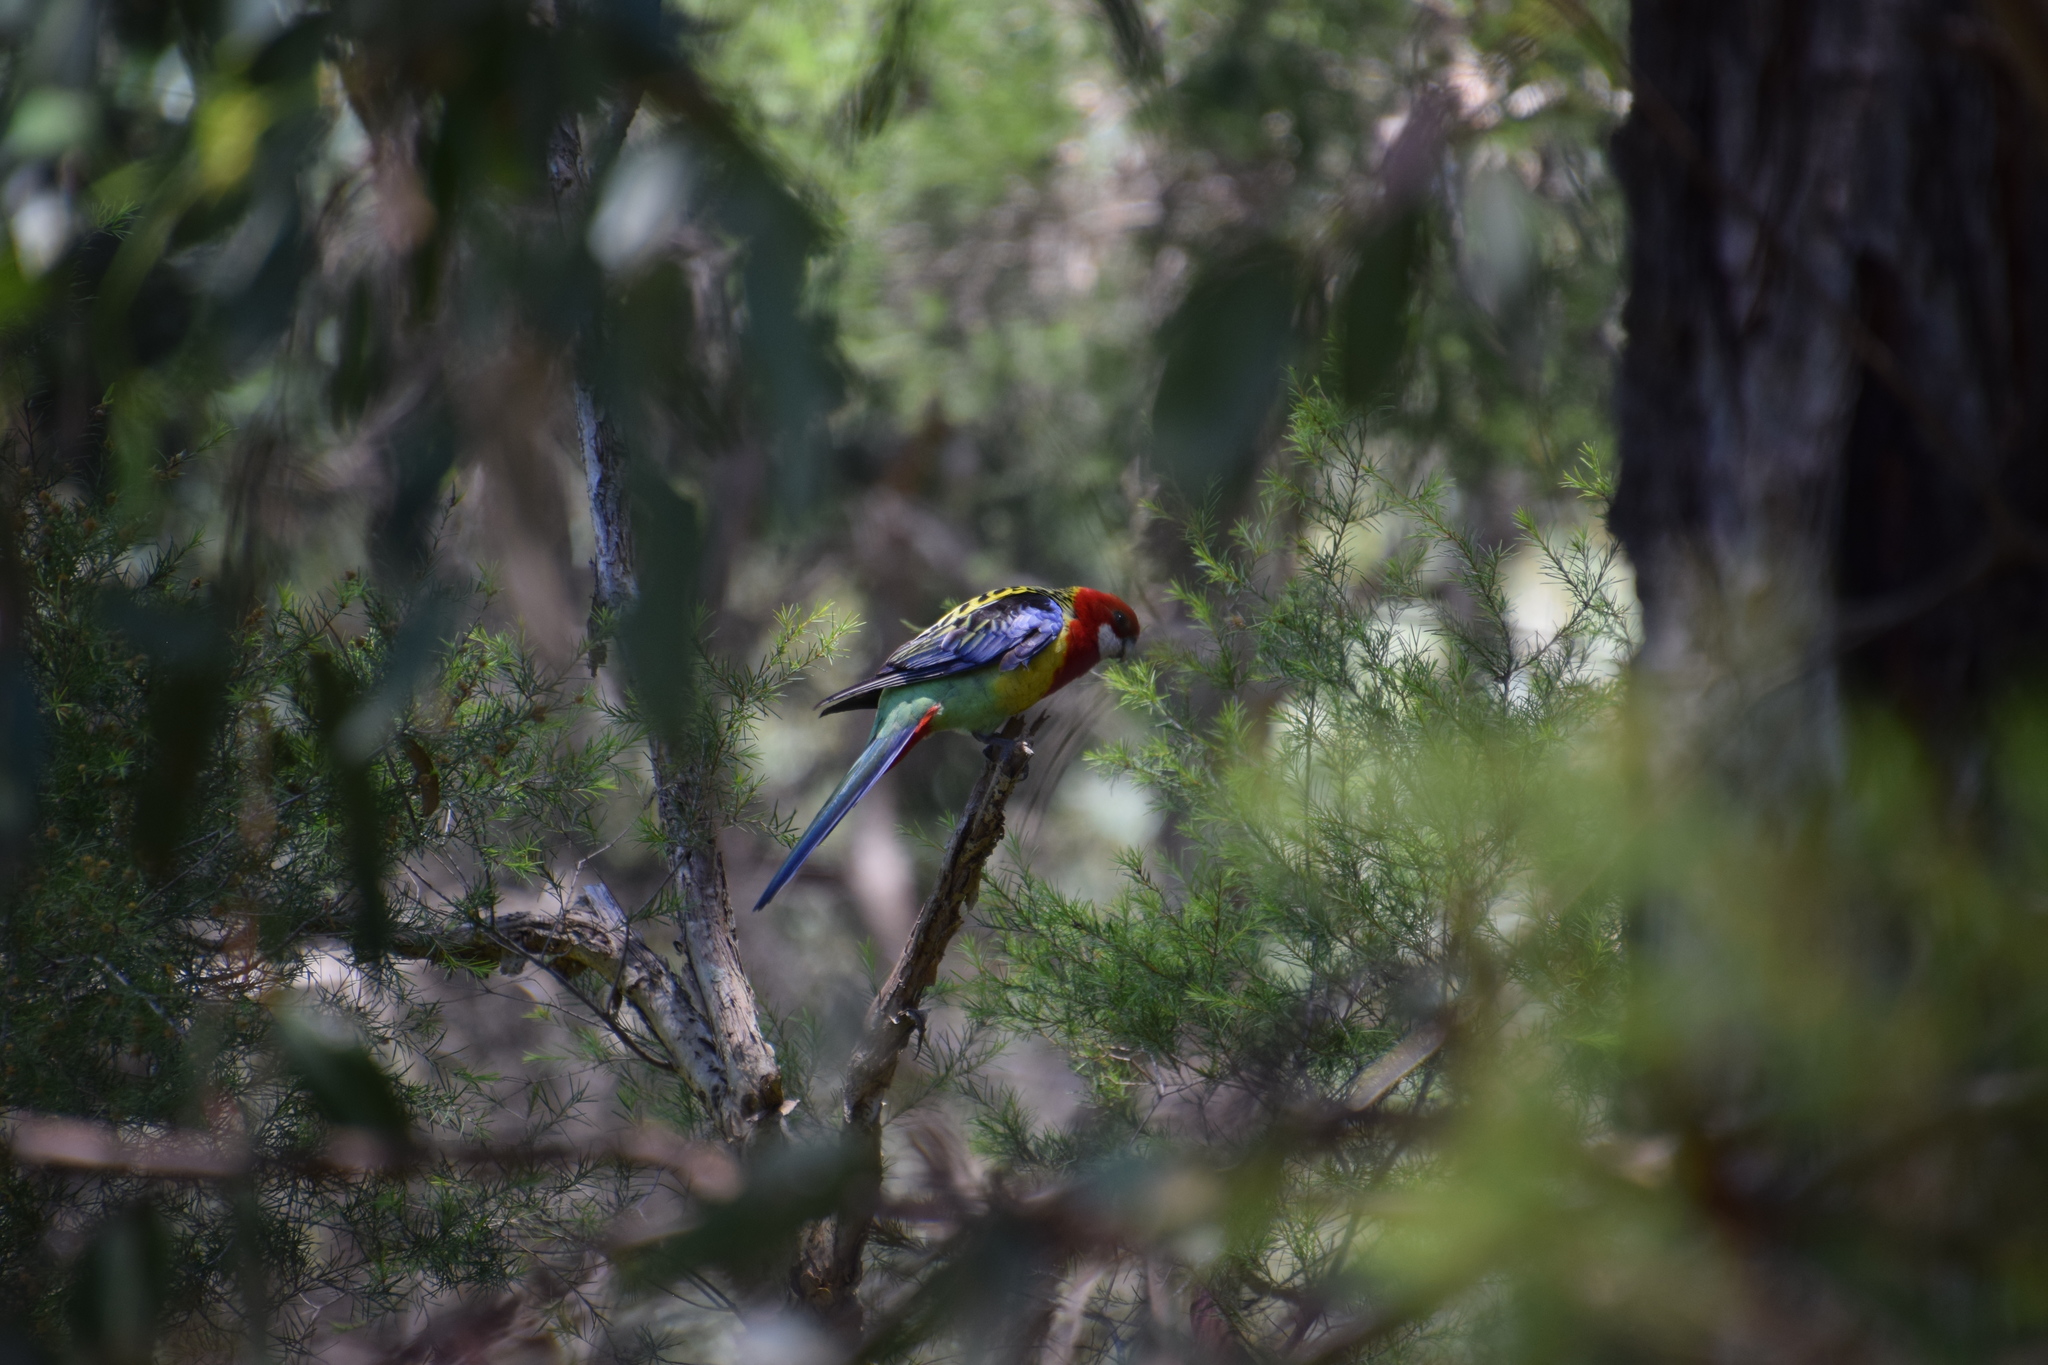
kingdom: Animalia
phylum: Chordata
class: Aves
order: Psittaciformes
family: Psittacidae
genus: Platycercus
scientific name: Platycercus eximius
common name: Eastern rosella
